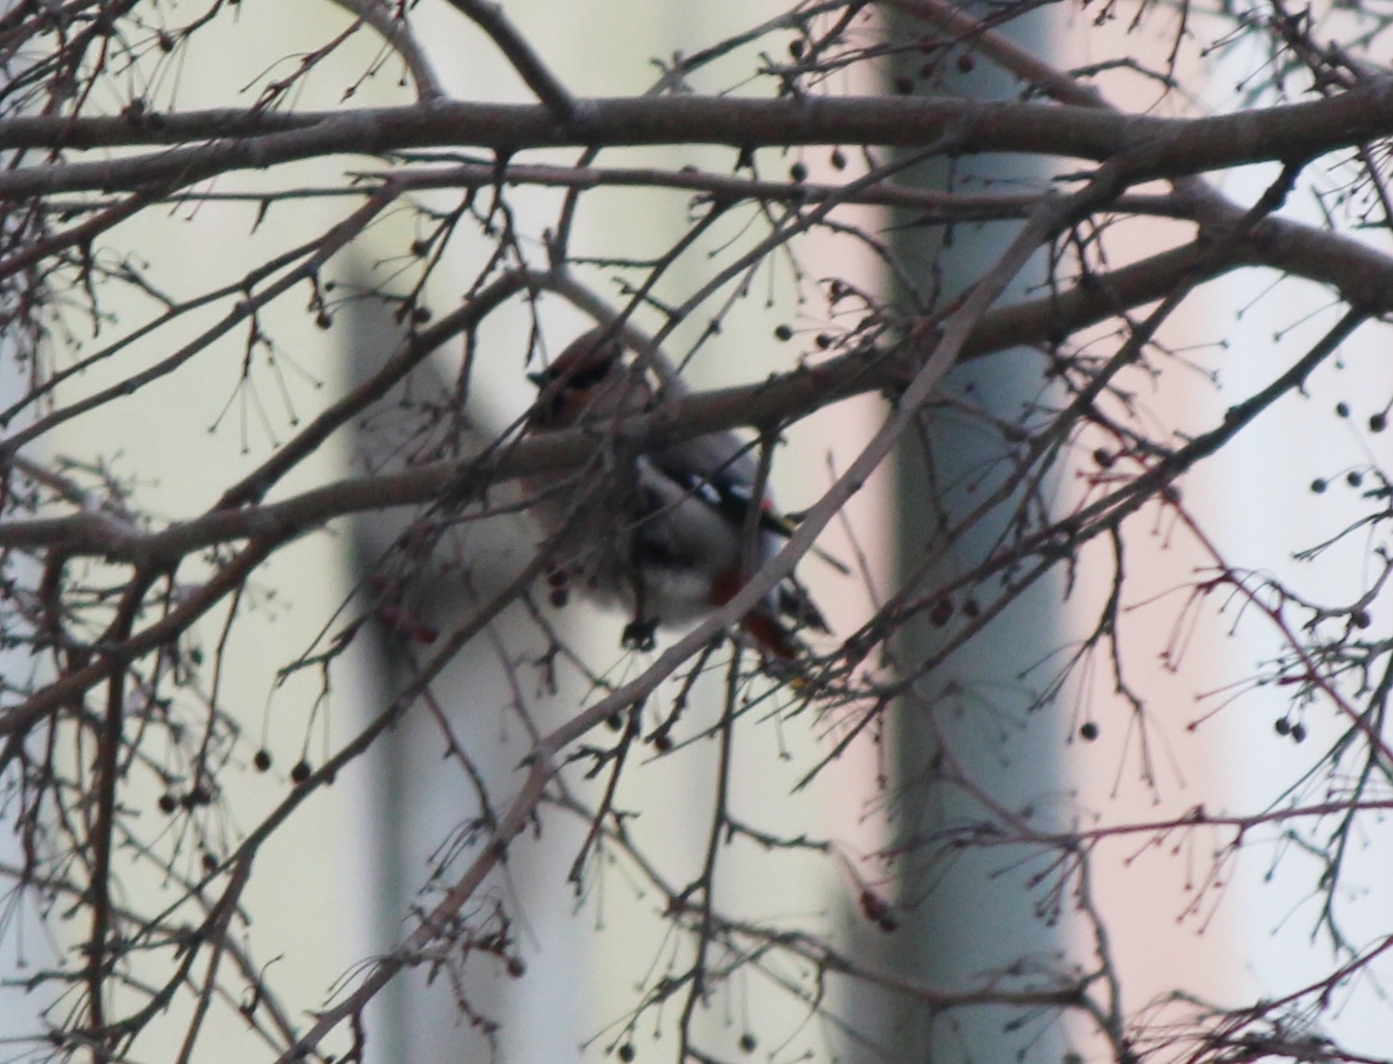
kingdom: Animalia
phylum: Chordata
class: Aves
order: Passeriformes
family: Bombycillidae
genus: Bombycilla
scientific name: Bombycilla garrulus
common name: Bohemian waxwing
